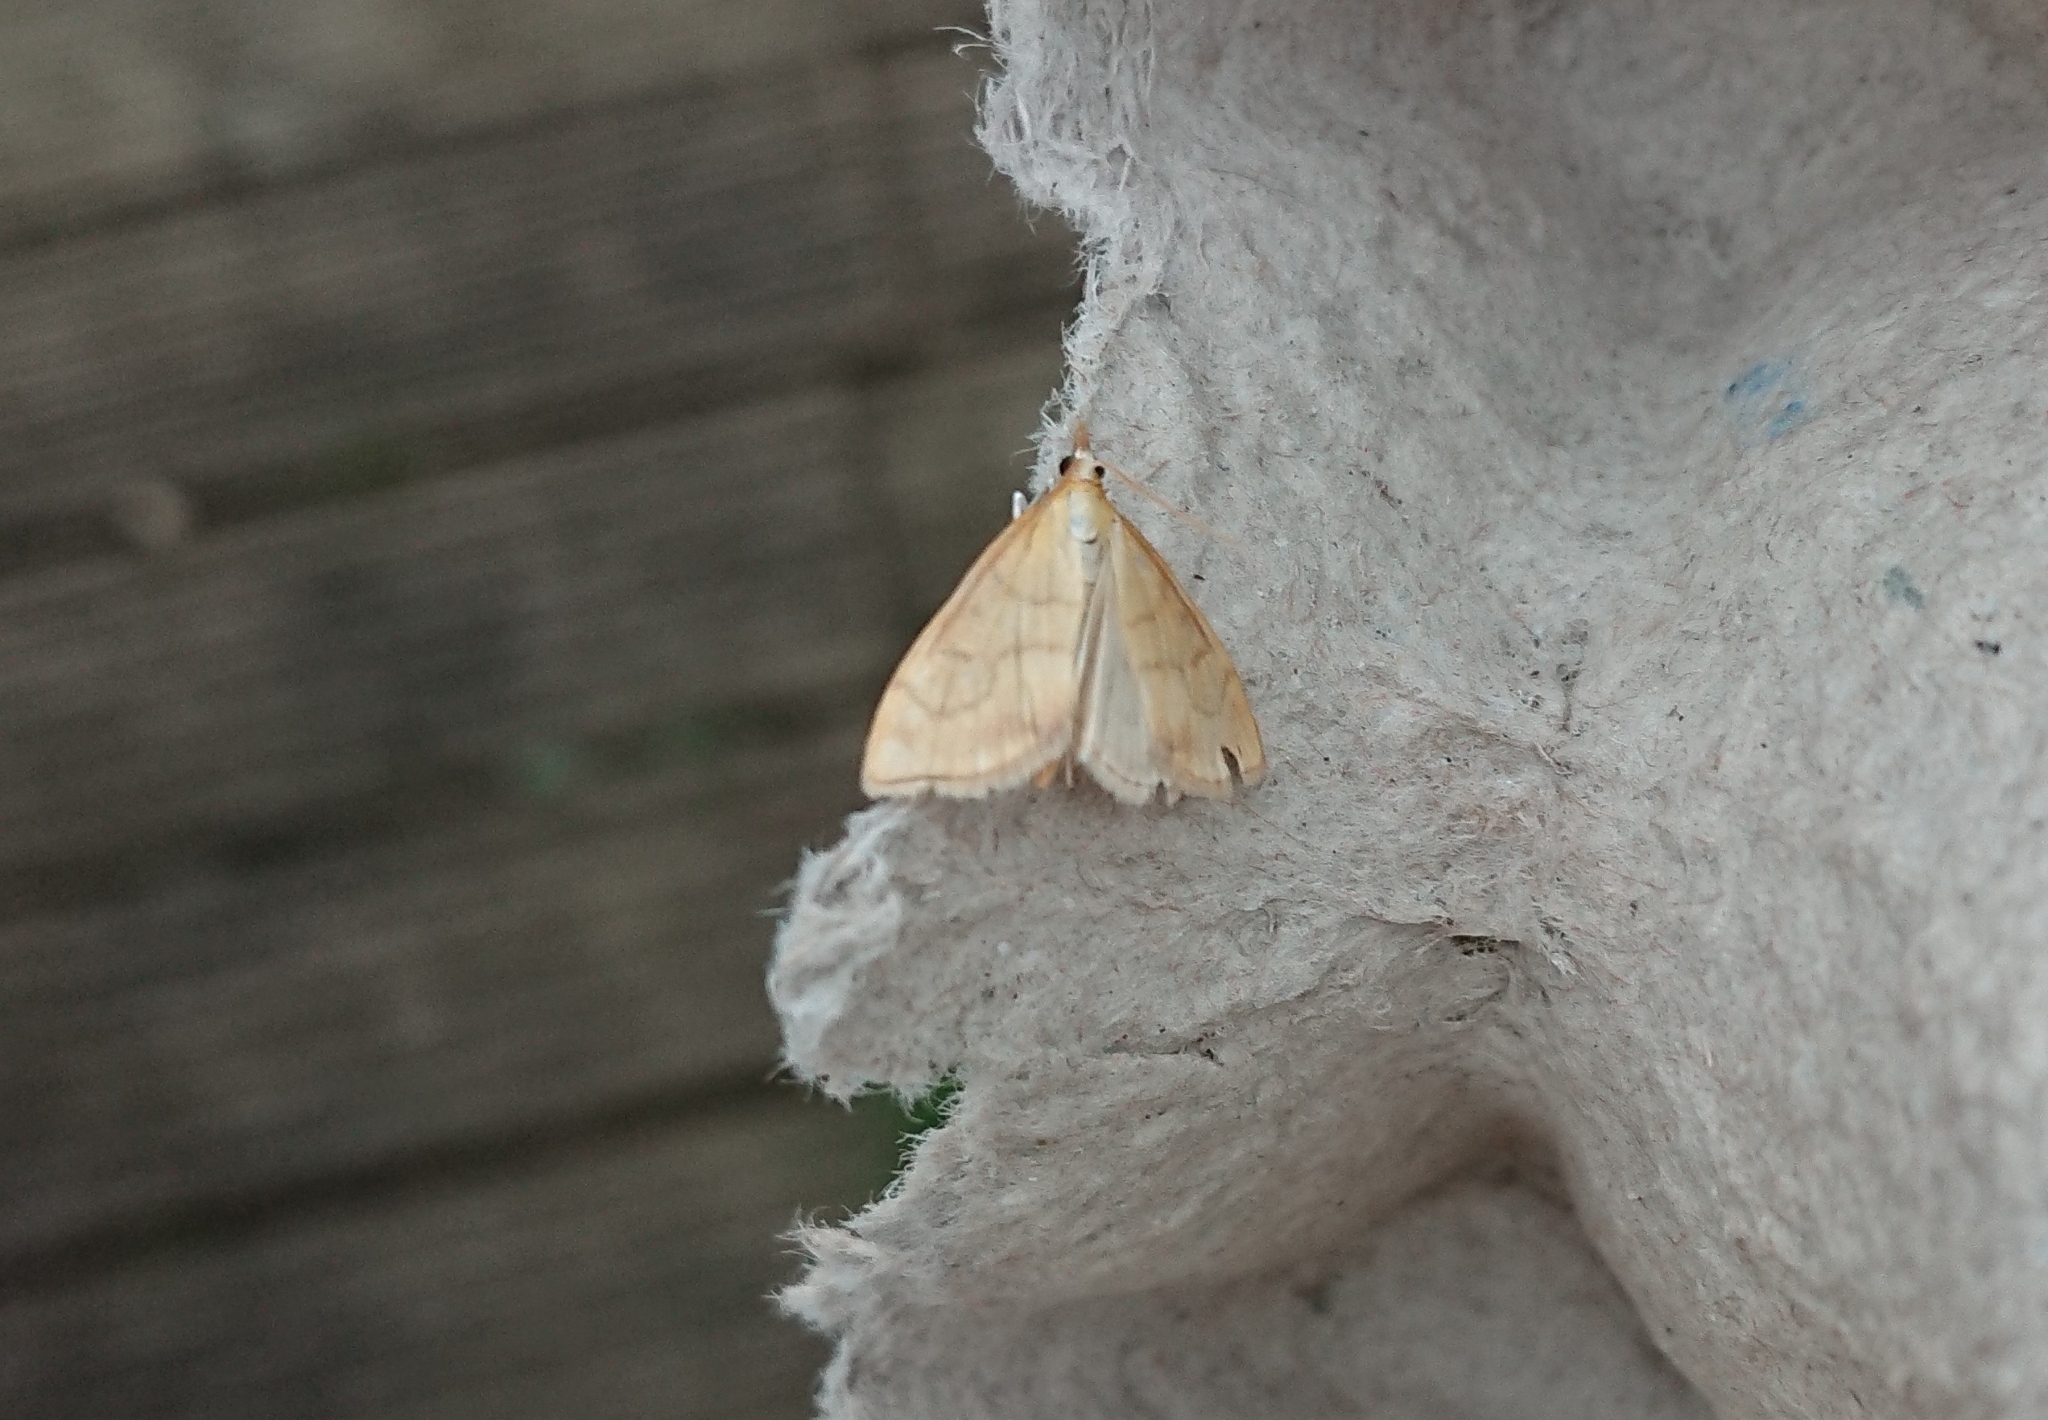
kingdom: Animalia
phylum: Arthropoda
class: Insecta
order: Lepidoptera
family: Crambidae
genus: Anania
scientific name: Anania crocealis
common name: Ochreous pearl
